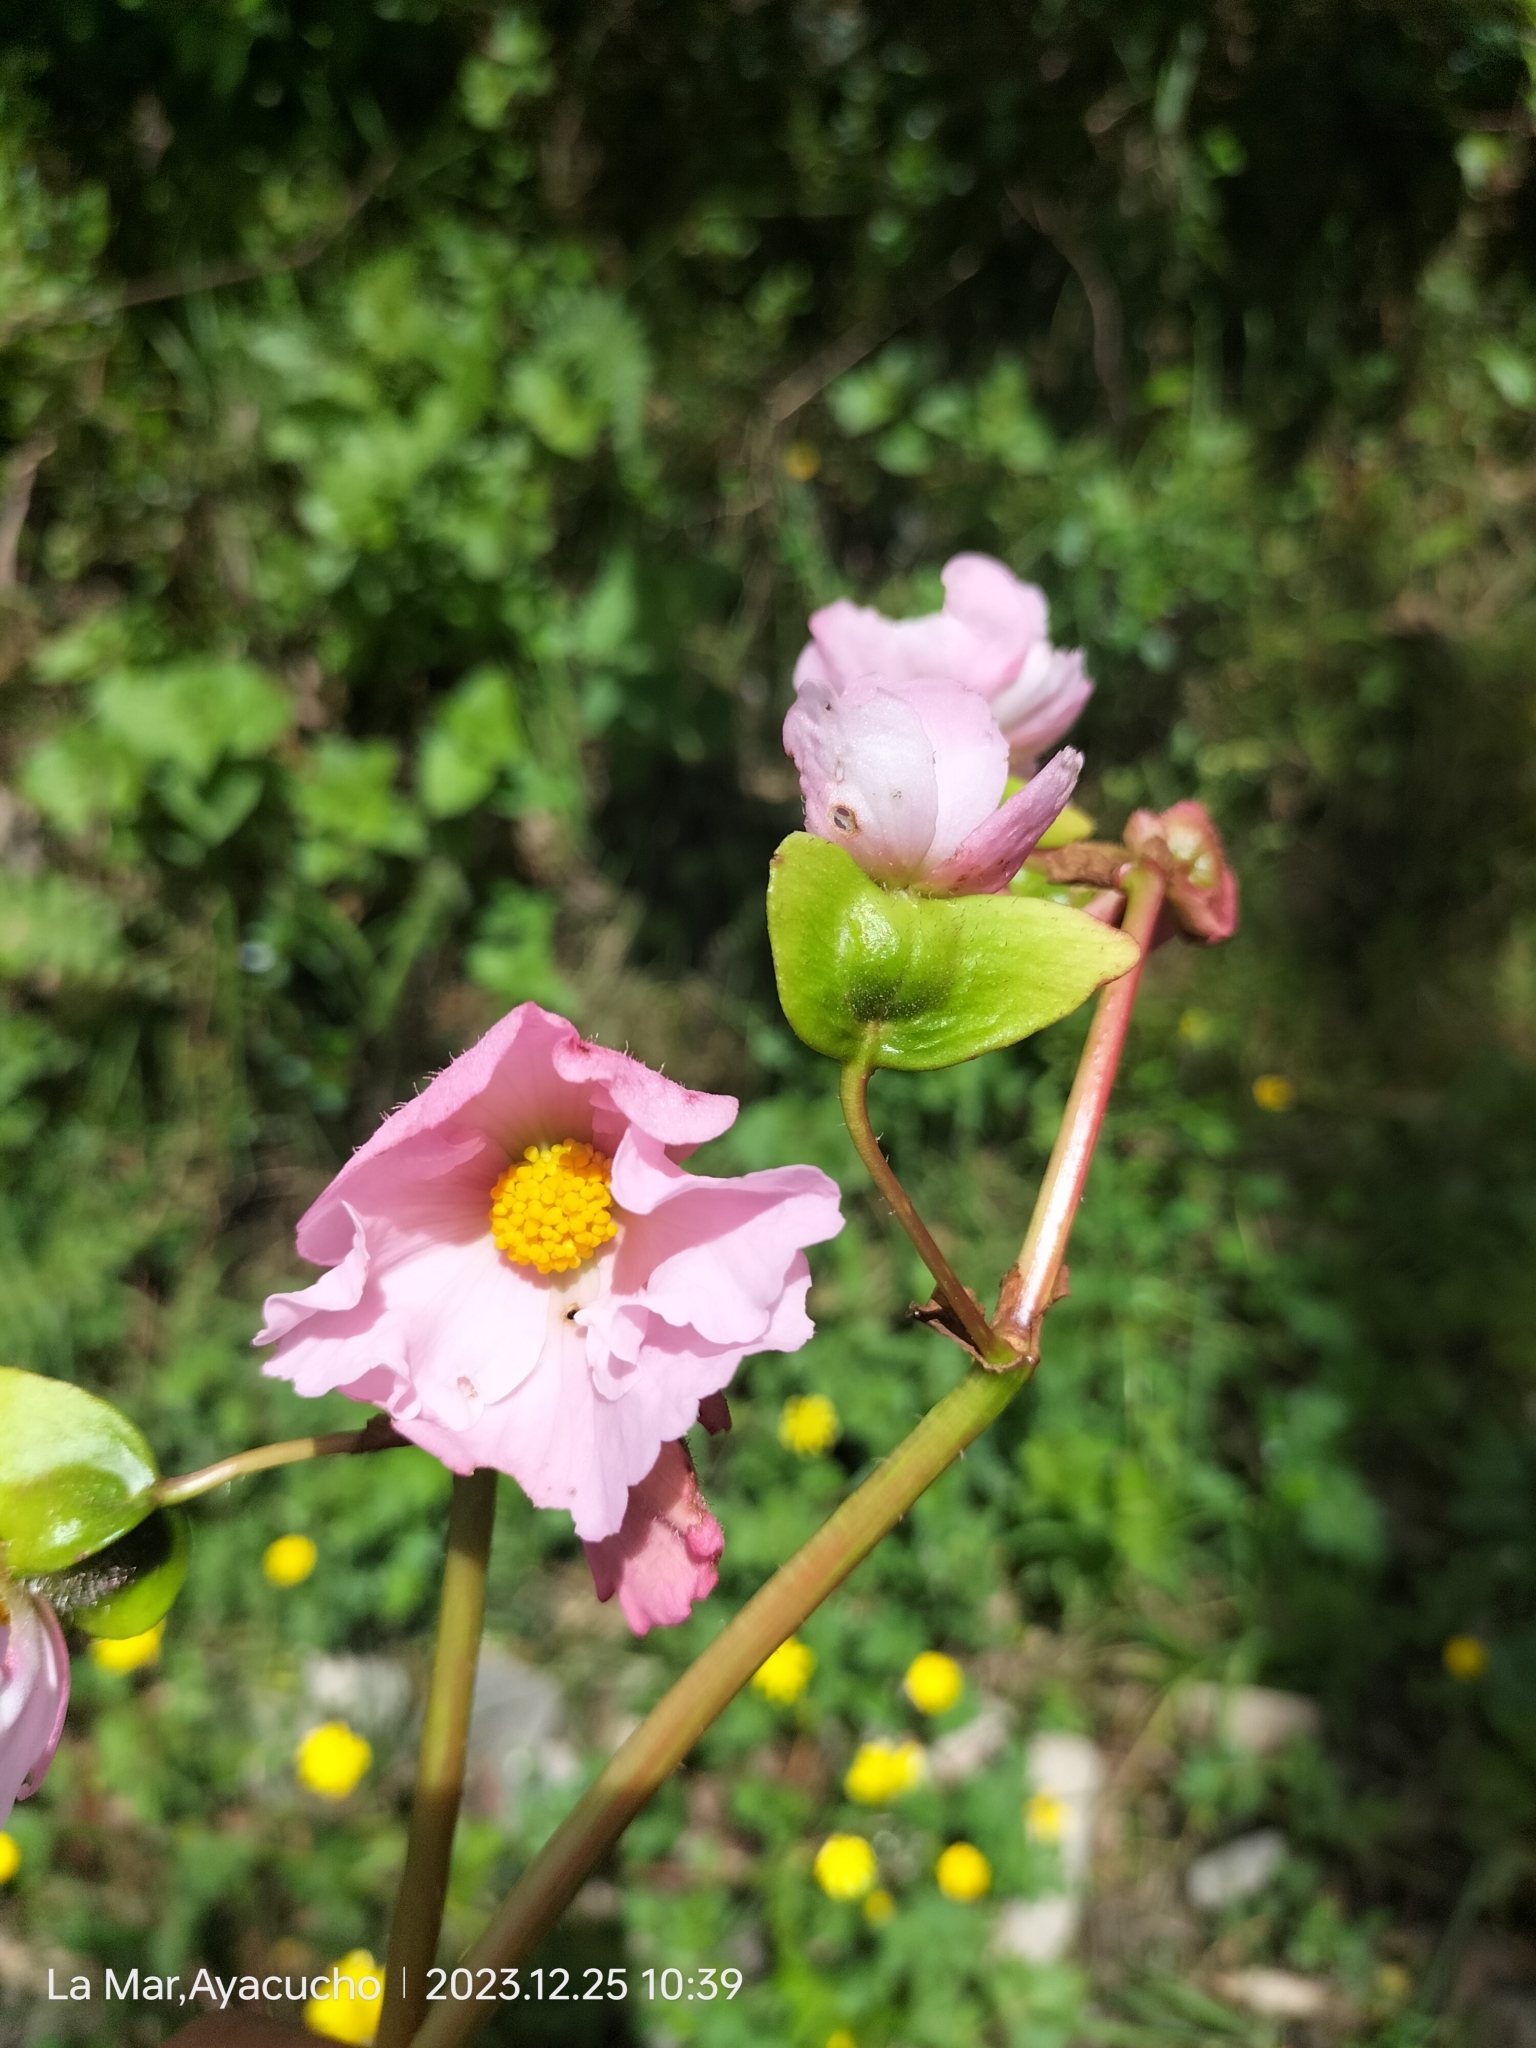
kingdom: Plantae
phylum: Tracheophyta
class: Magnoliopsida
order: Cucurbitales
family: Begoniaceae
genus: Begonia
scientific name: Begonia veitchii
